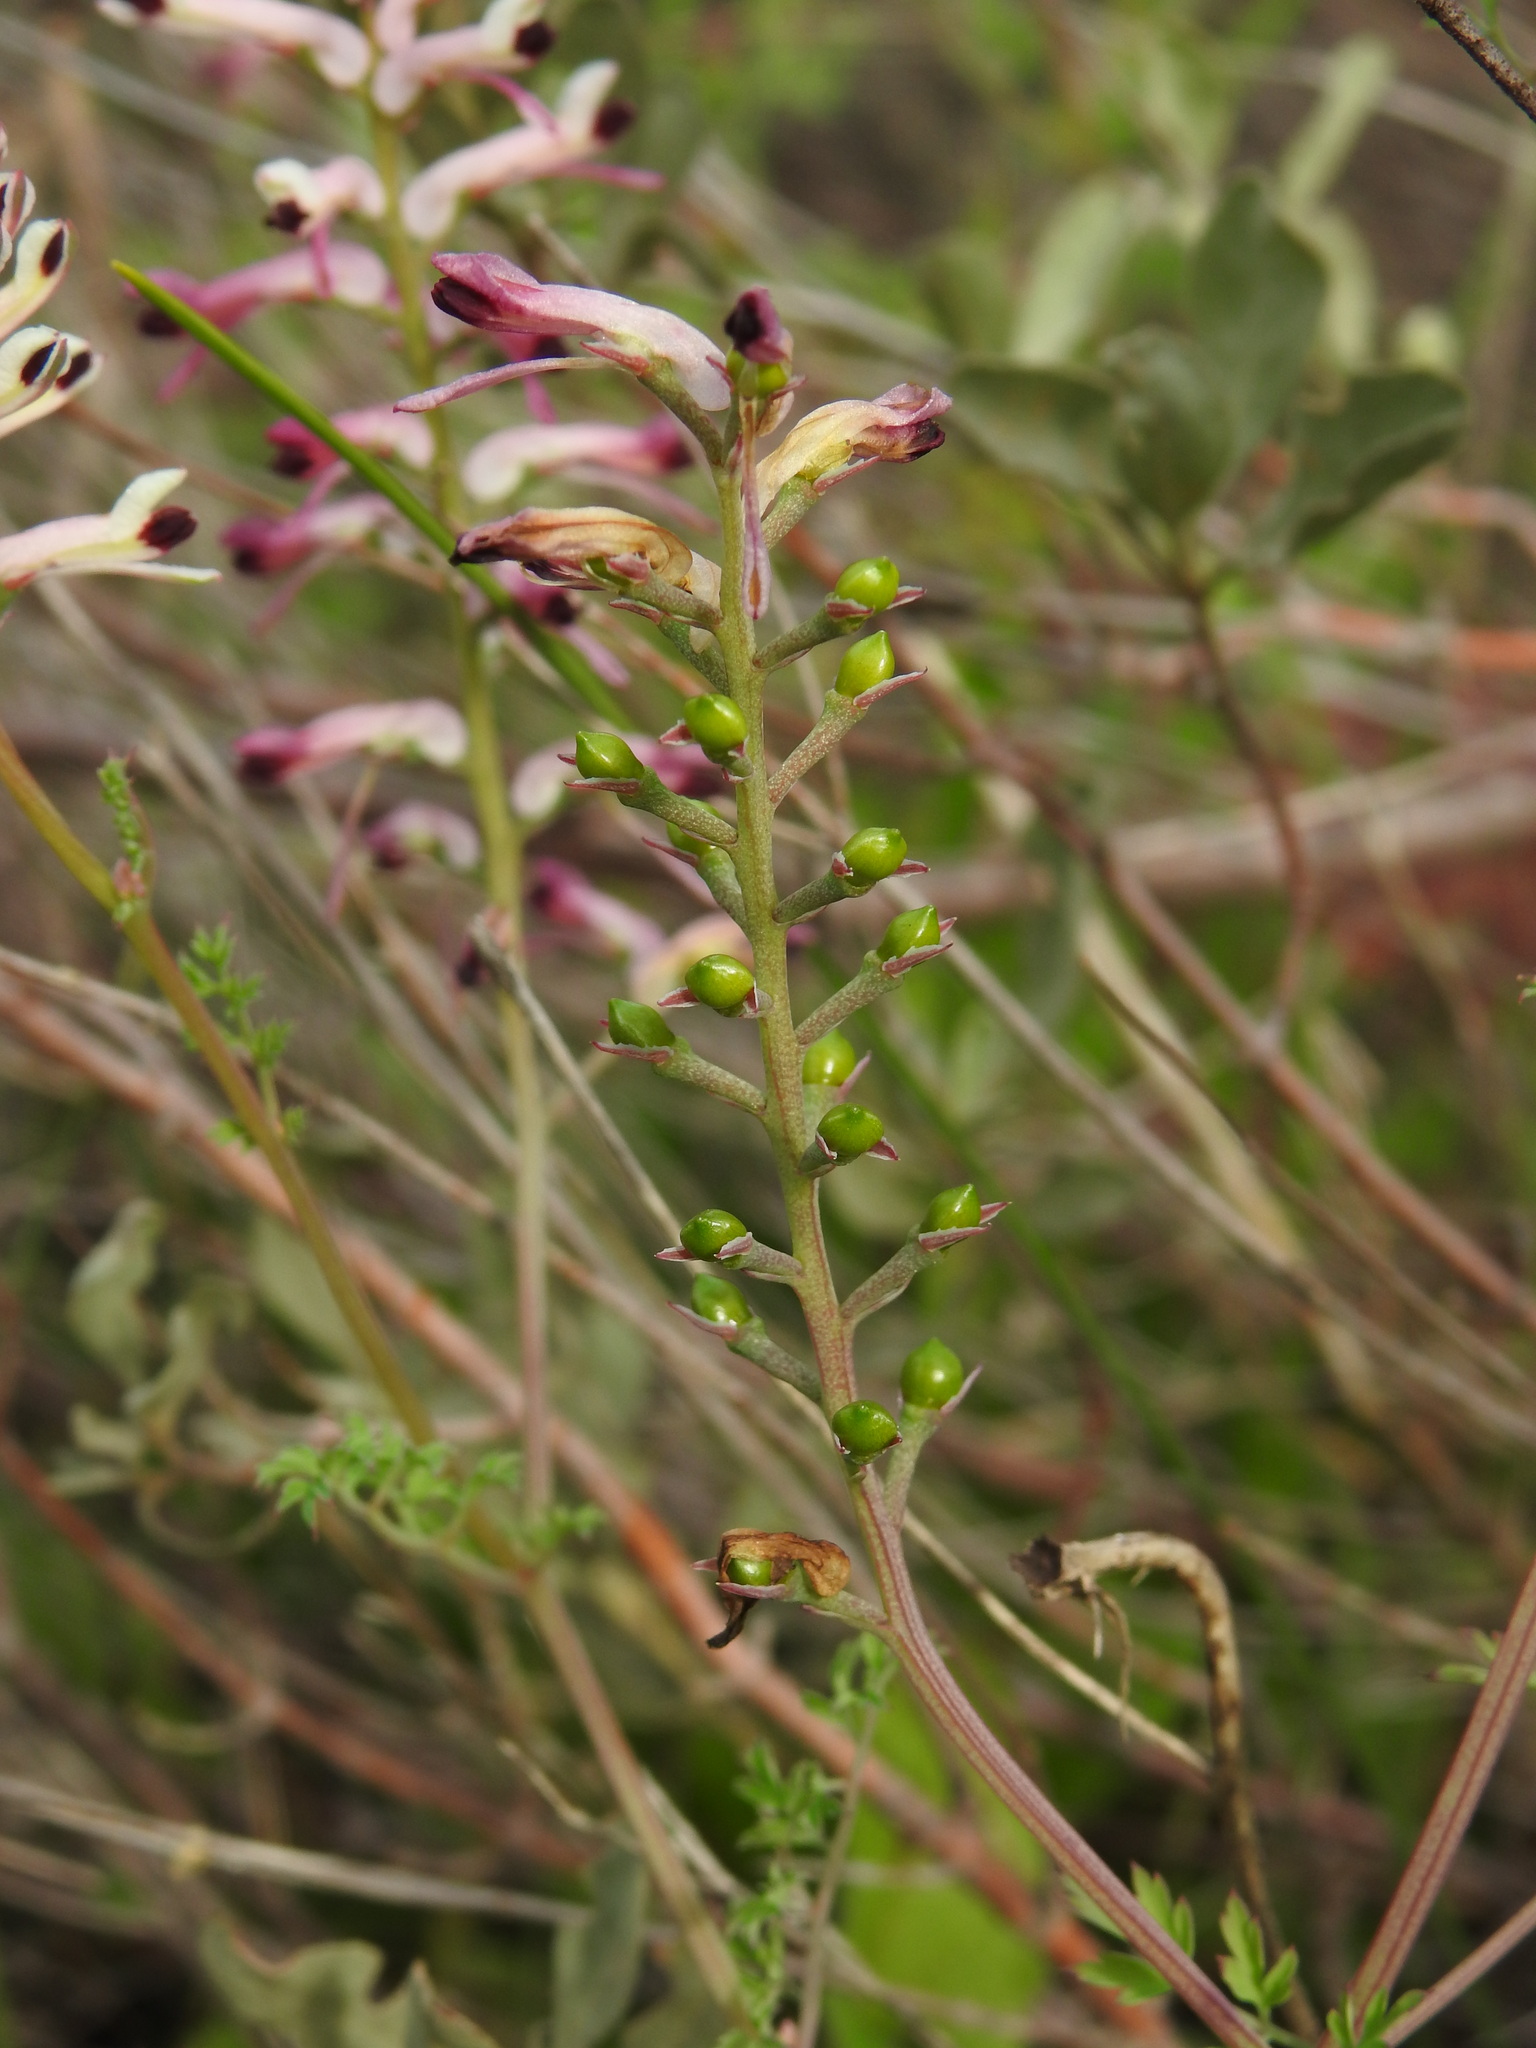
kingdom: Plantae
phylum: Tracheophyta
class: Magnoliopsida
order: Ranunculales
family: Papaveraceae
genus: Fumaria
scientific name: Fumaria agraria
